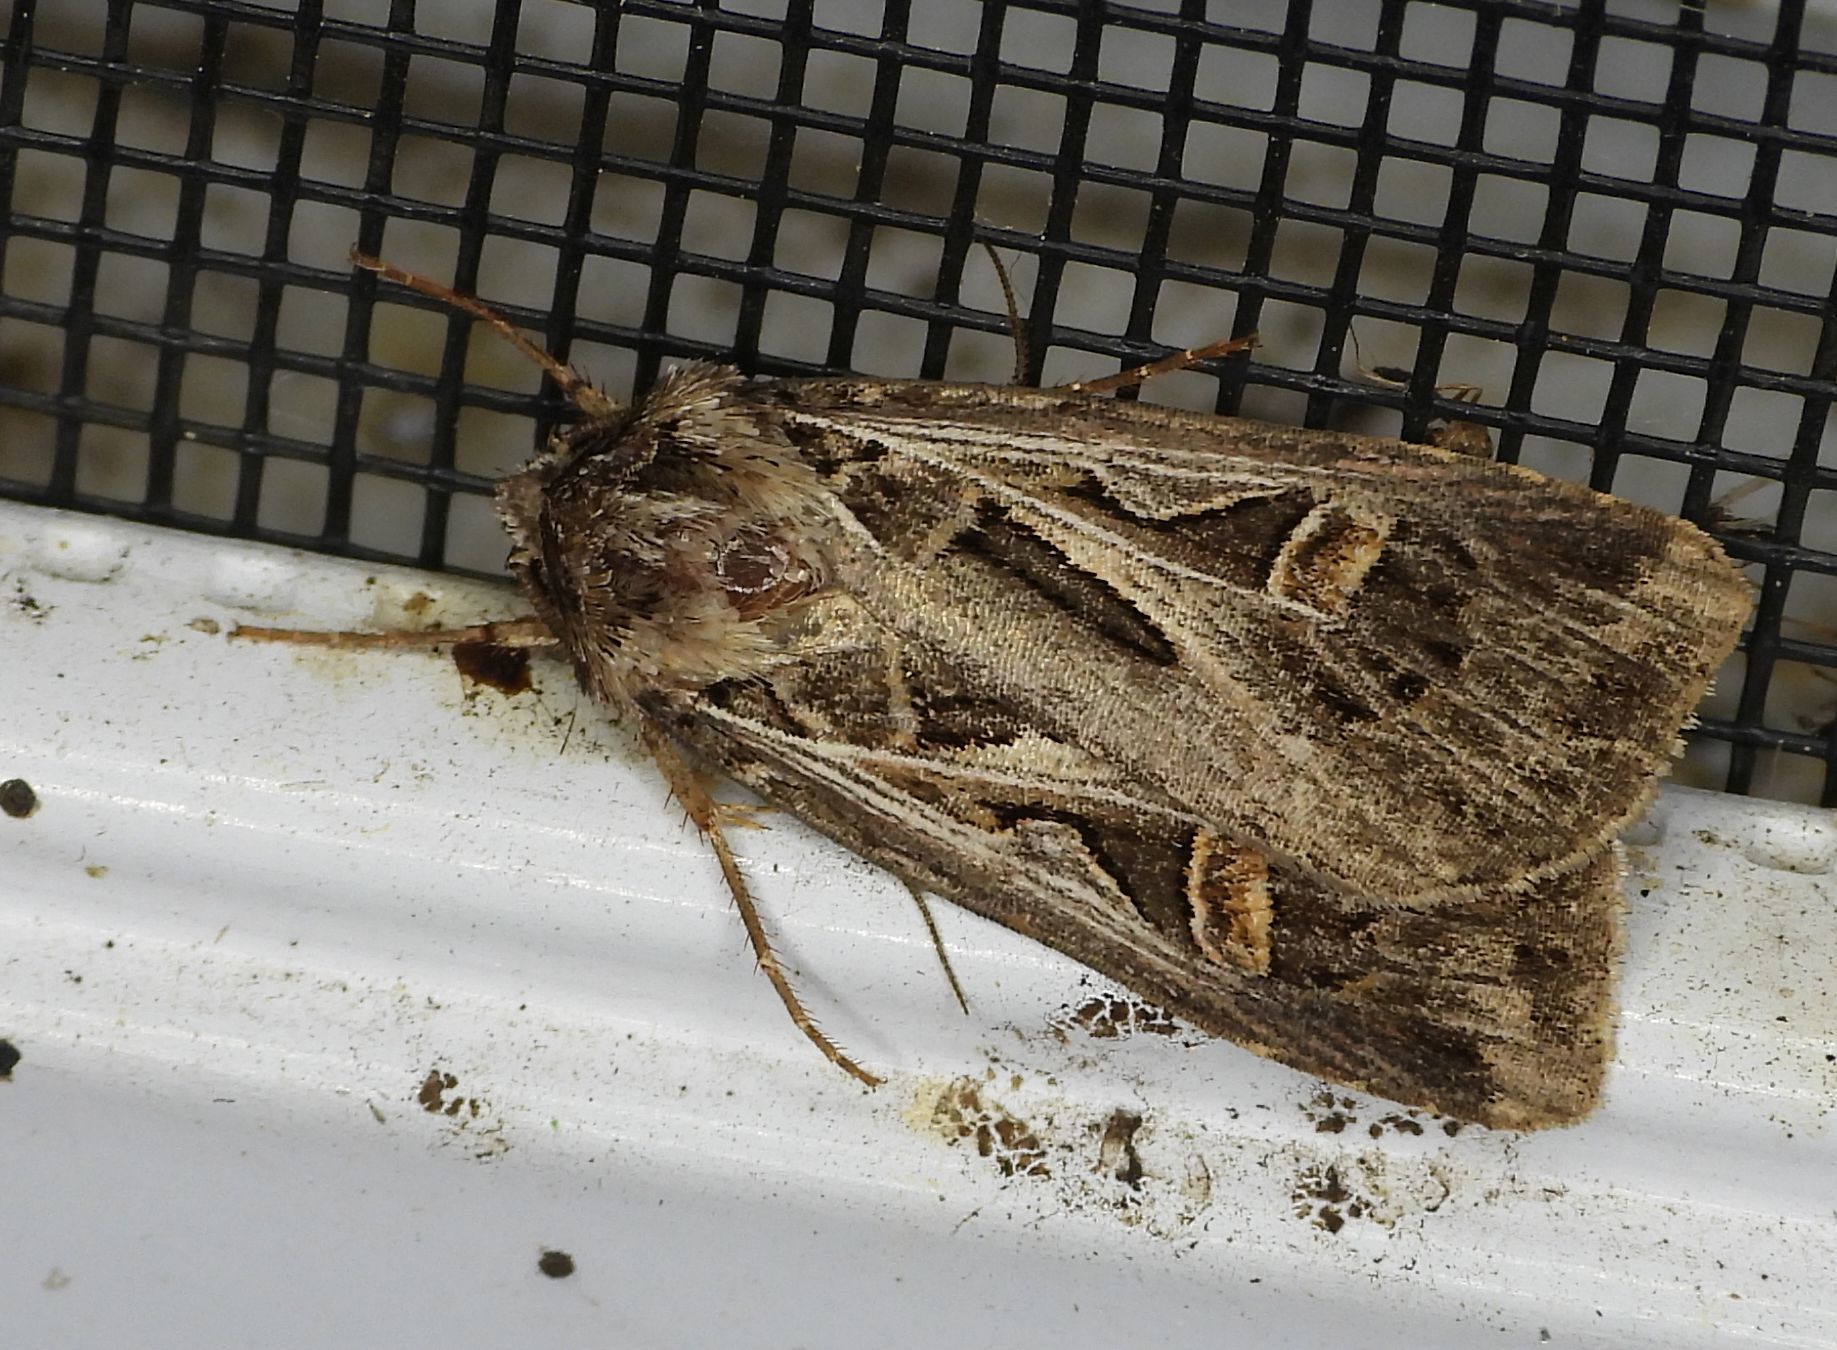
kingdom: Animalia
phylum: Arthropoda
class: Insecta
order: Lepidoptera
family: Noctuidae
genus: Feltia
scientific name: Feltia jaculifera
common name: Dingy cutworm moth
